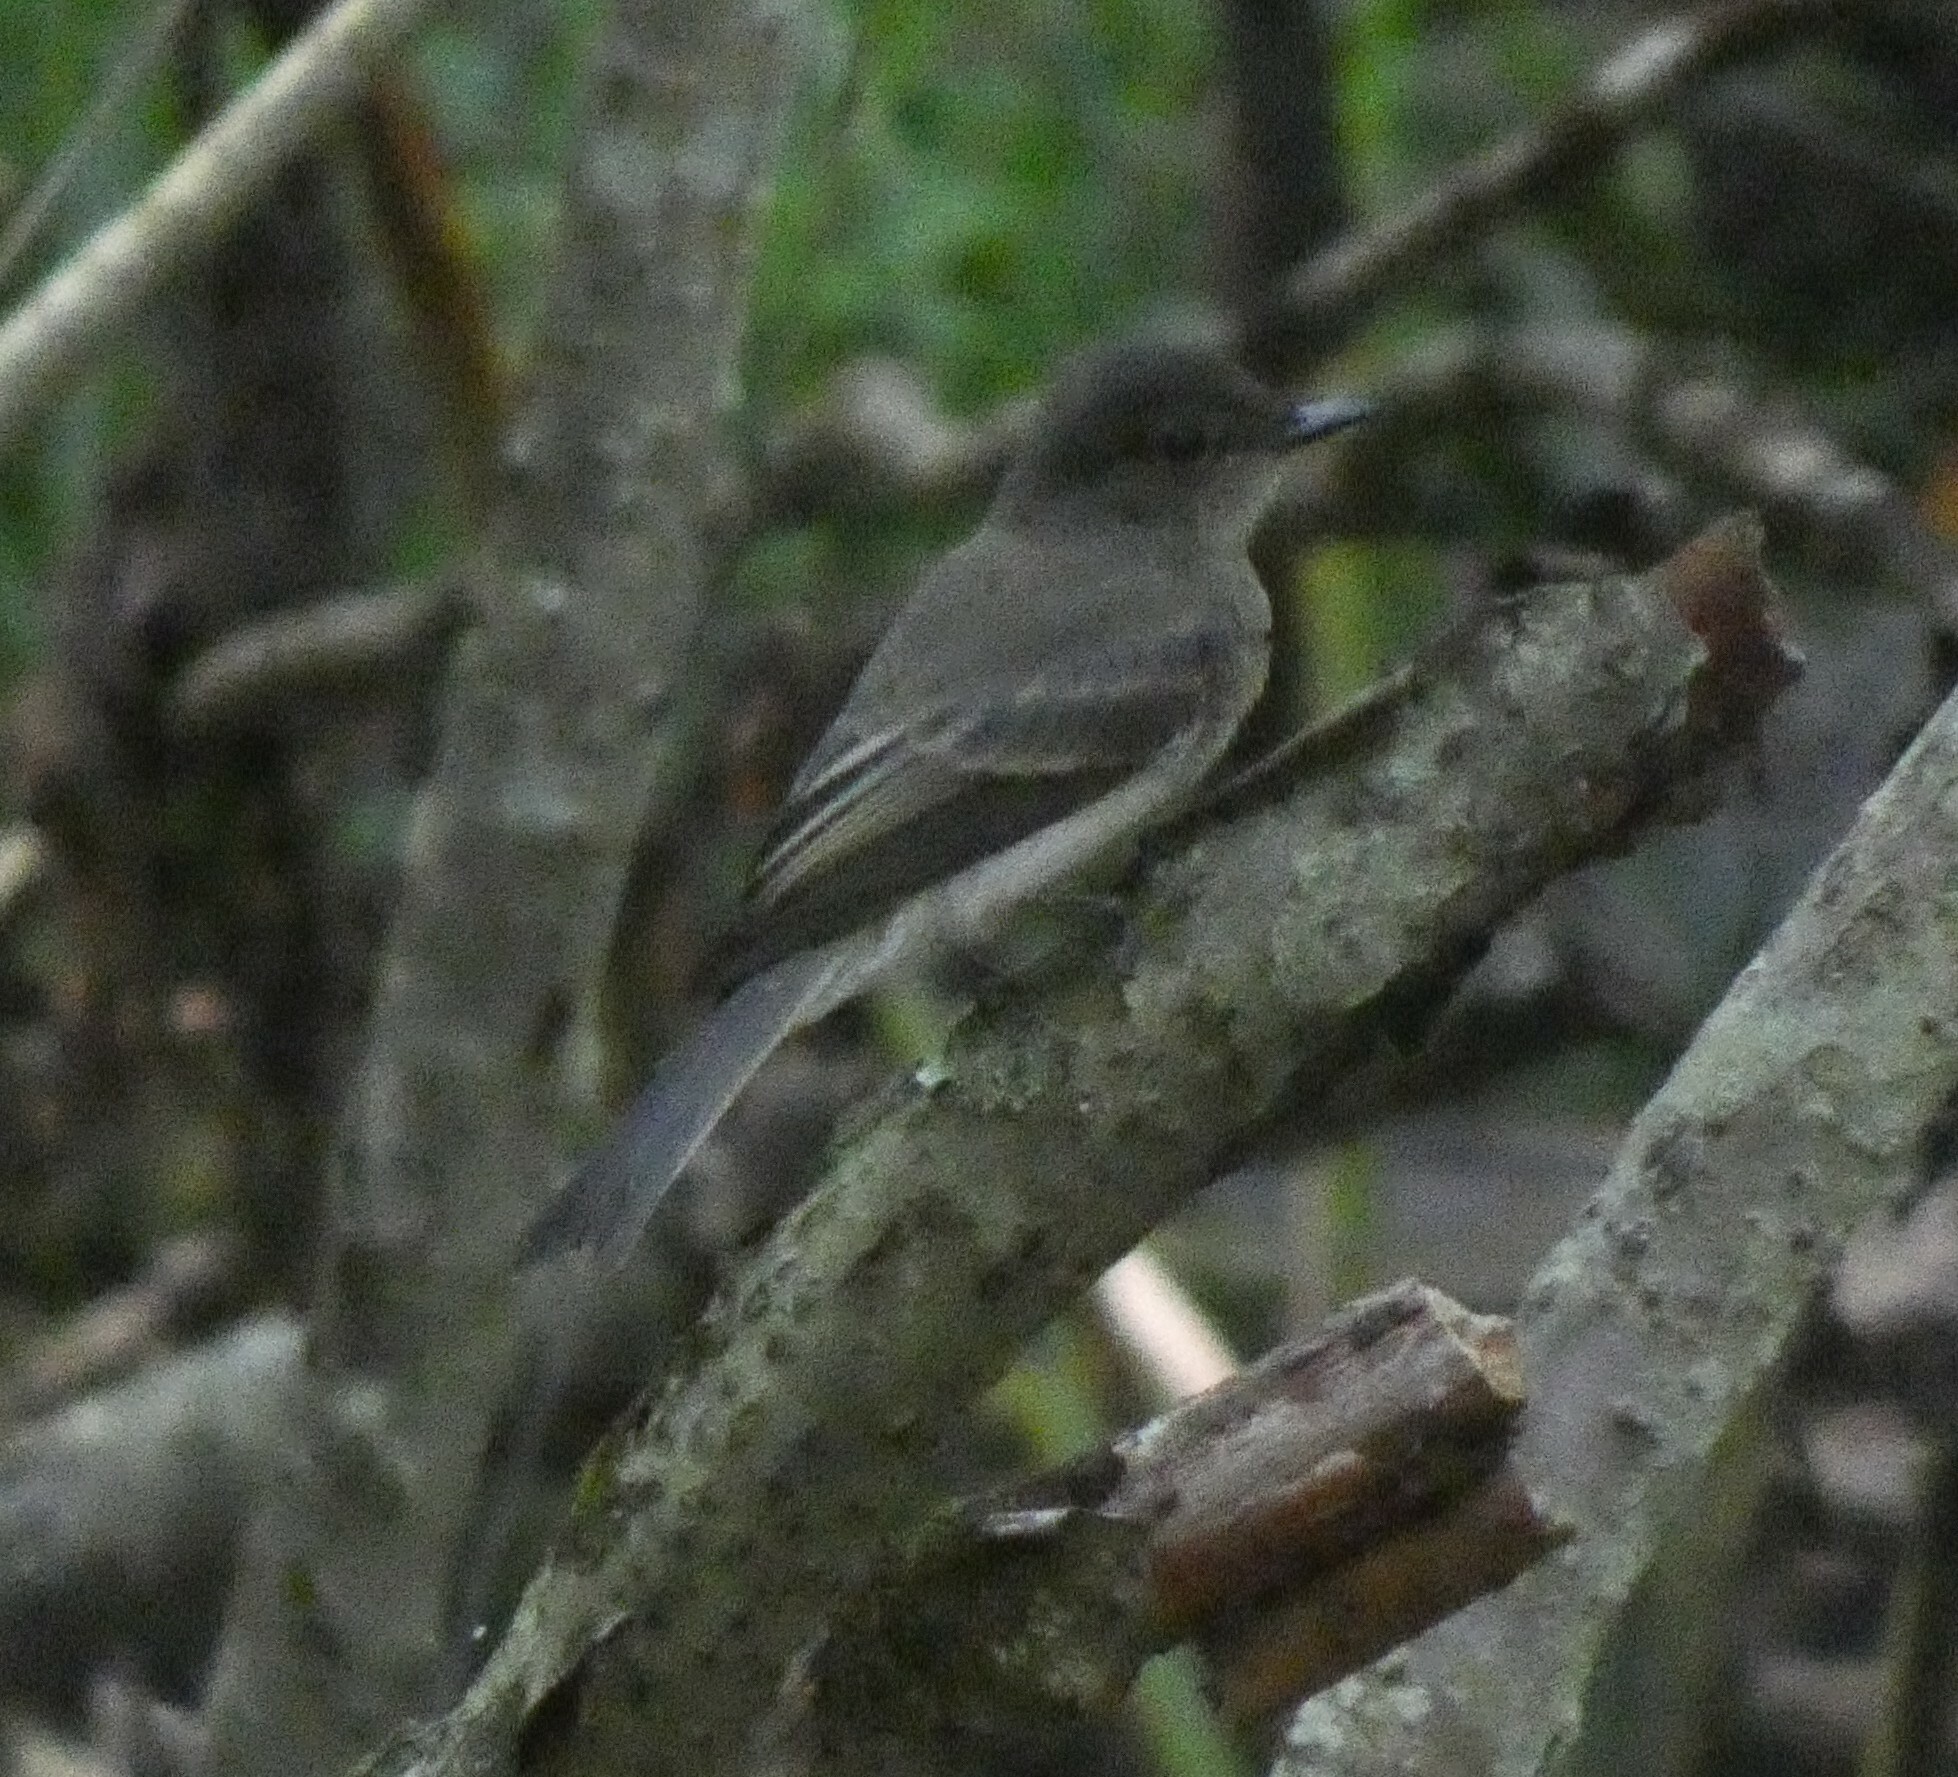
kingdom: Animalia
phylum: Chordata
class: Aves
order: Passeriformes
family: Tyrannidae
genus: Sayornis
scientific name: Sayornis phoebe
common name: Eastern phoebe
